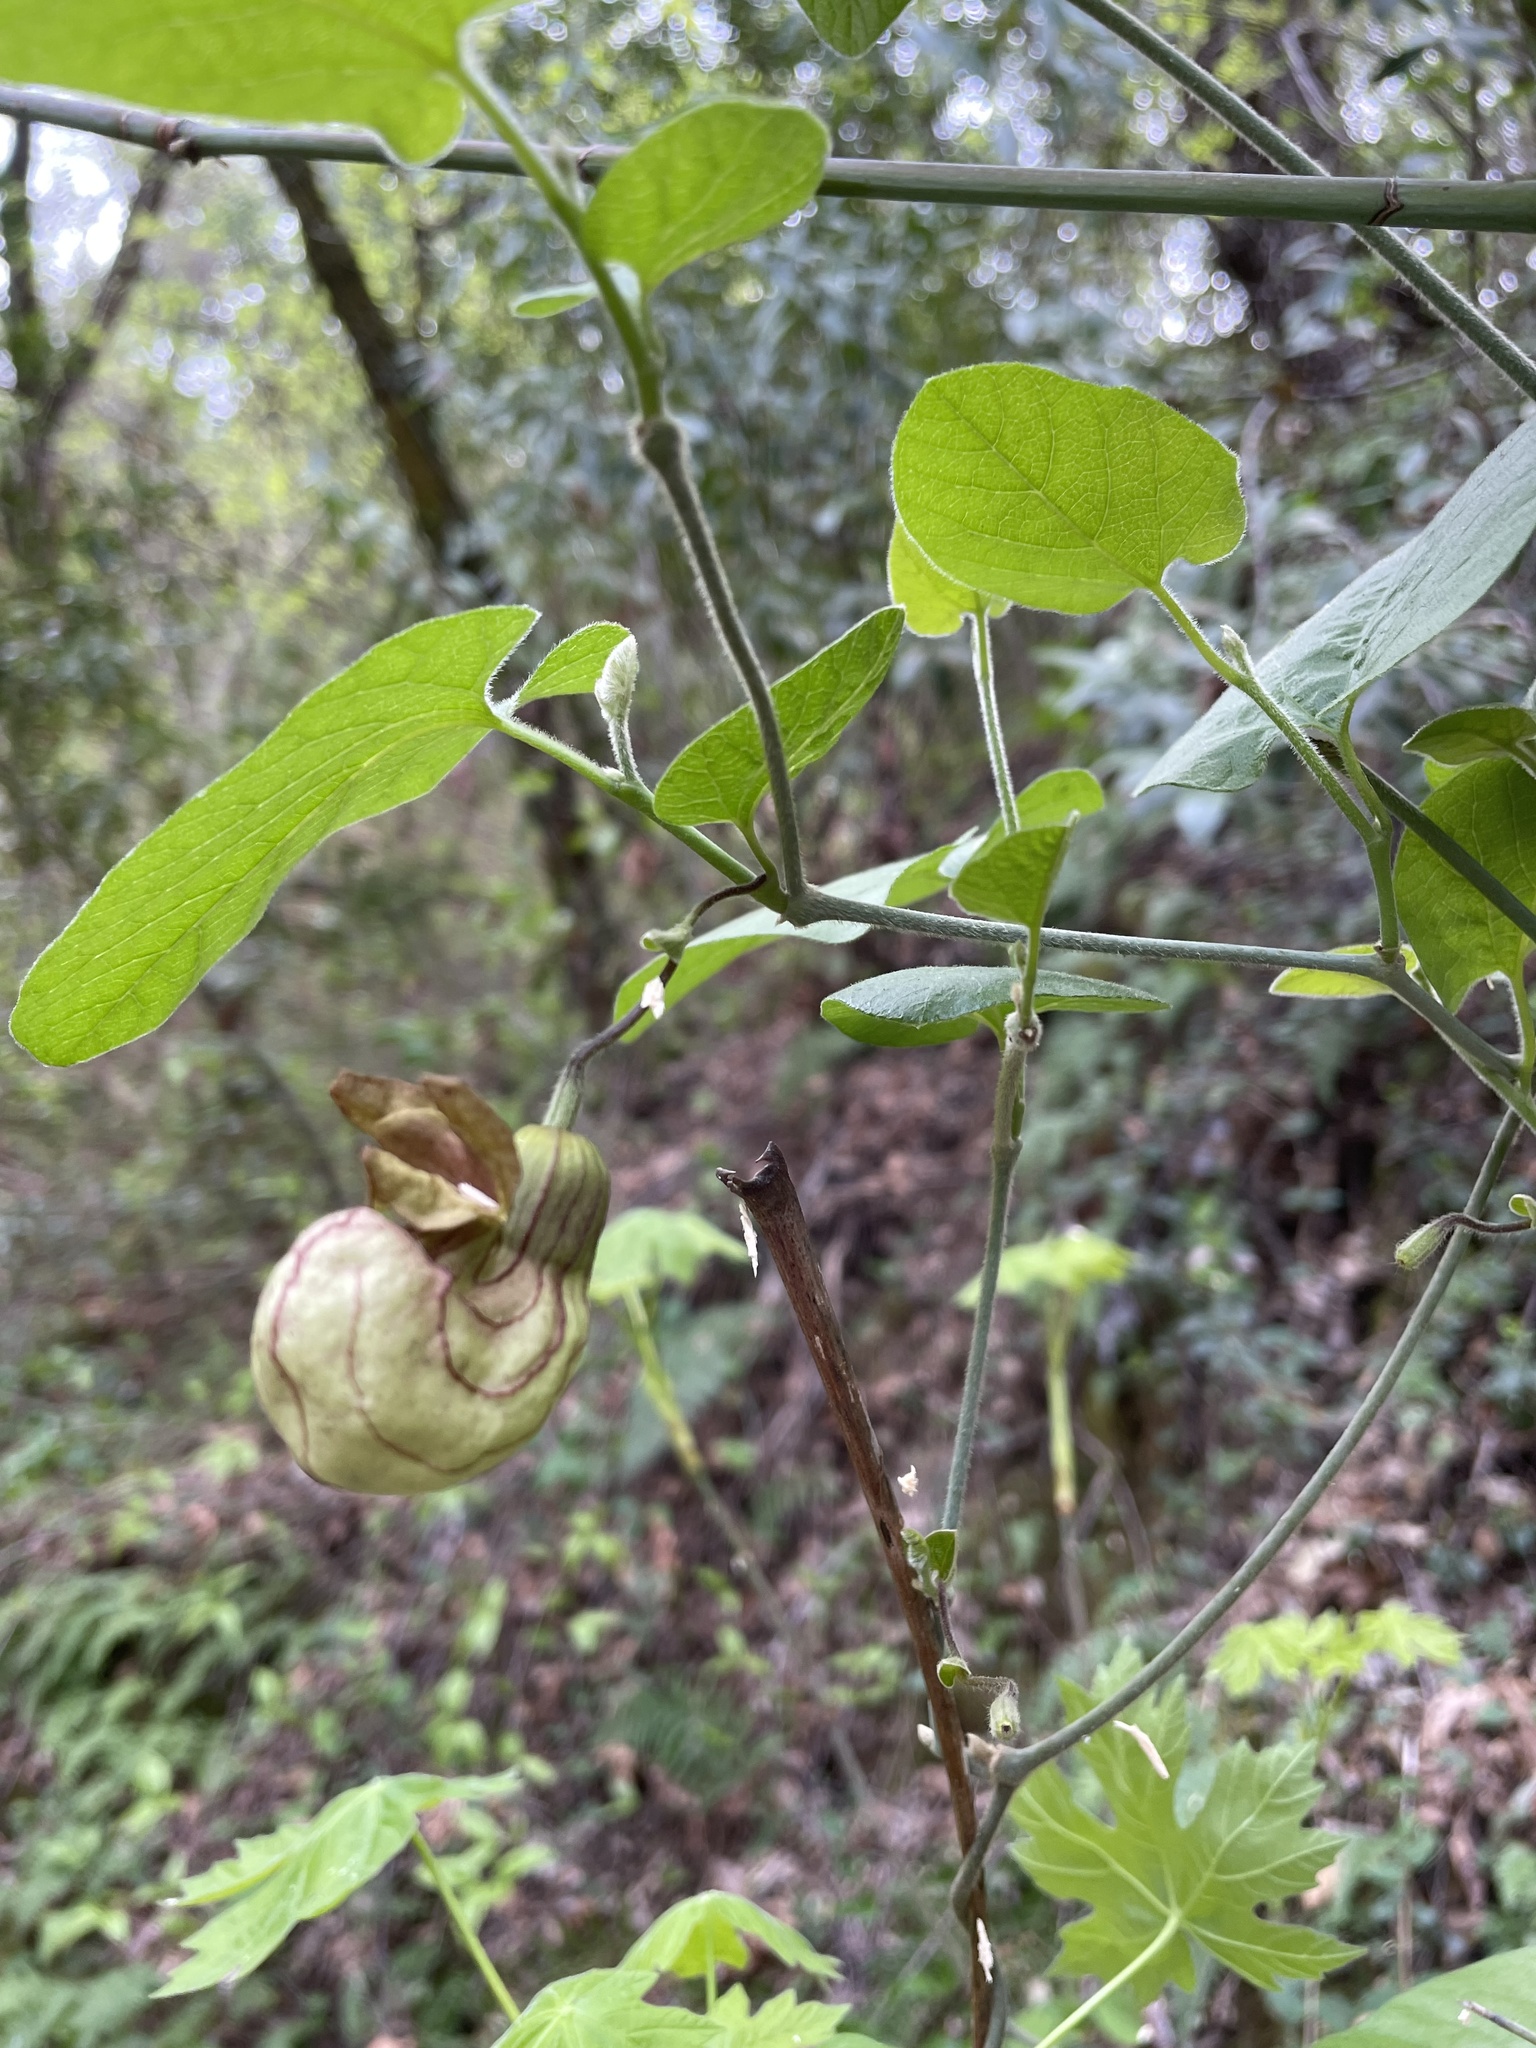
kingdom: Plantae
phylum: Tracheophyta
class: Magnoliopsida
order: Piperales
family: Aristolochiaceae
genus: Isotrema
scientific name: Isotrema californicum
